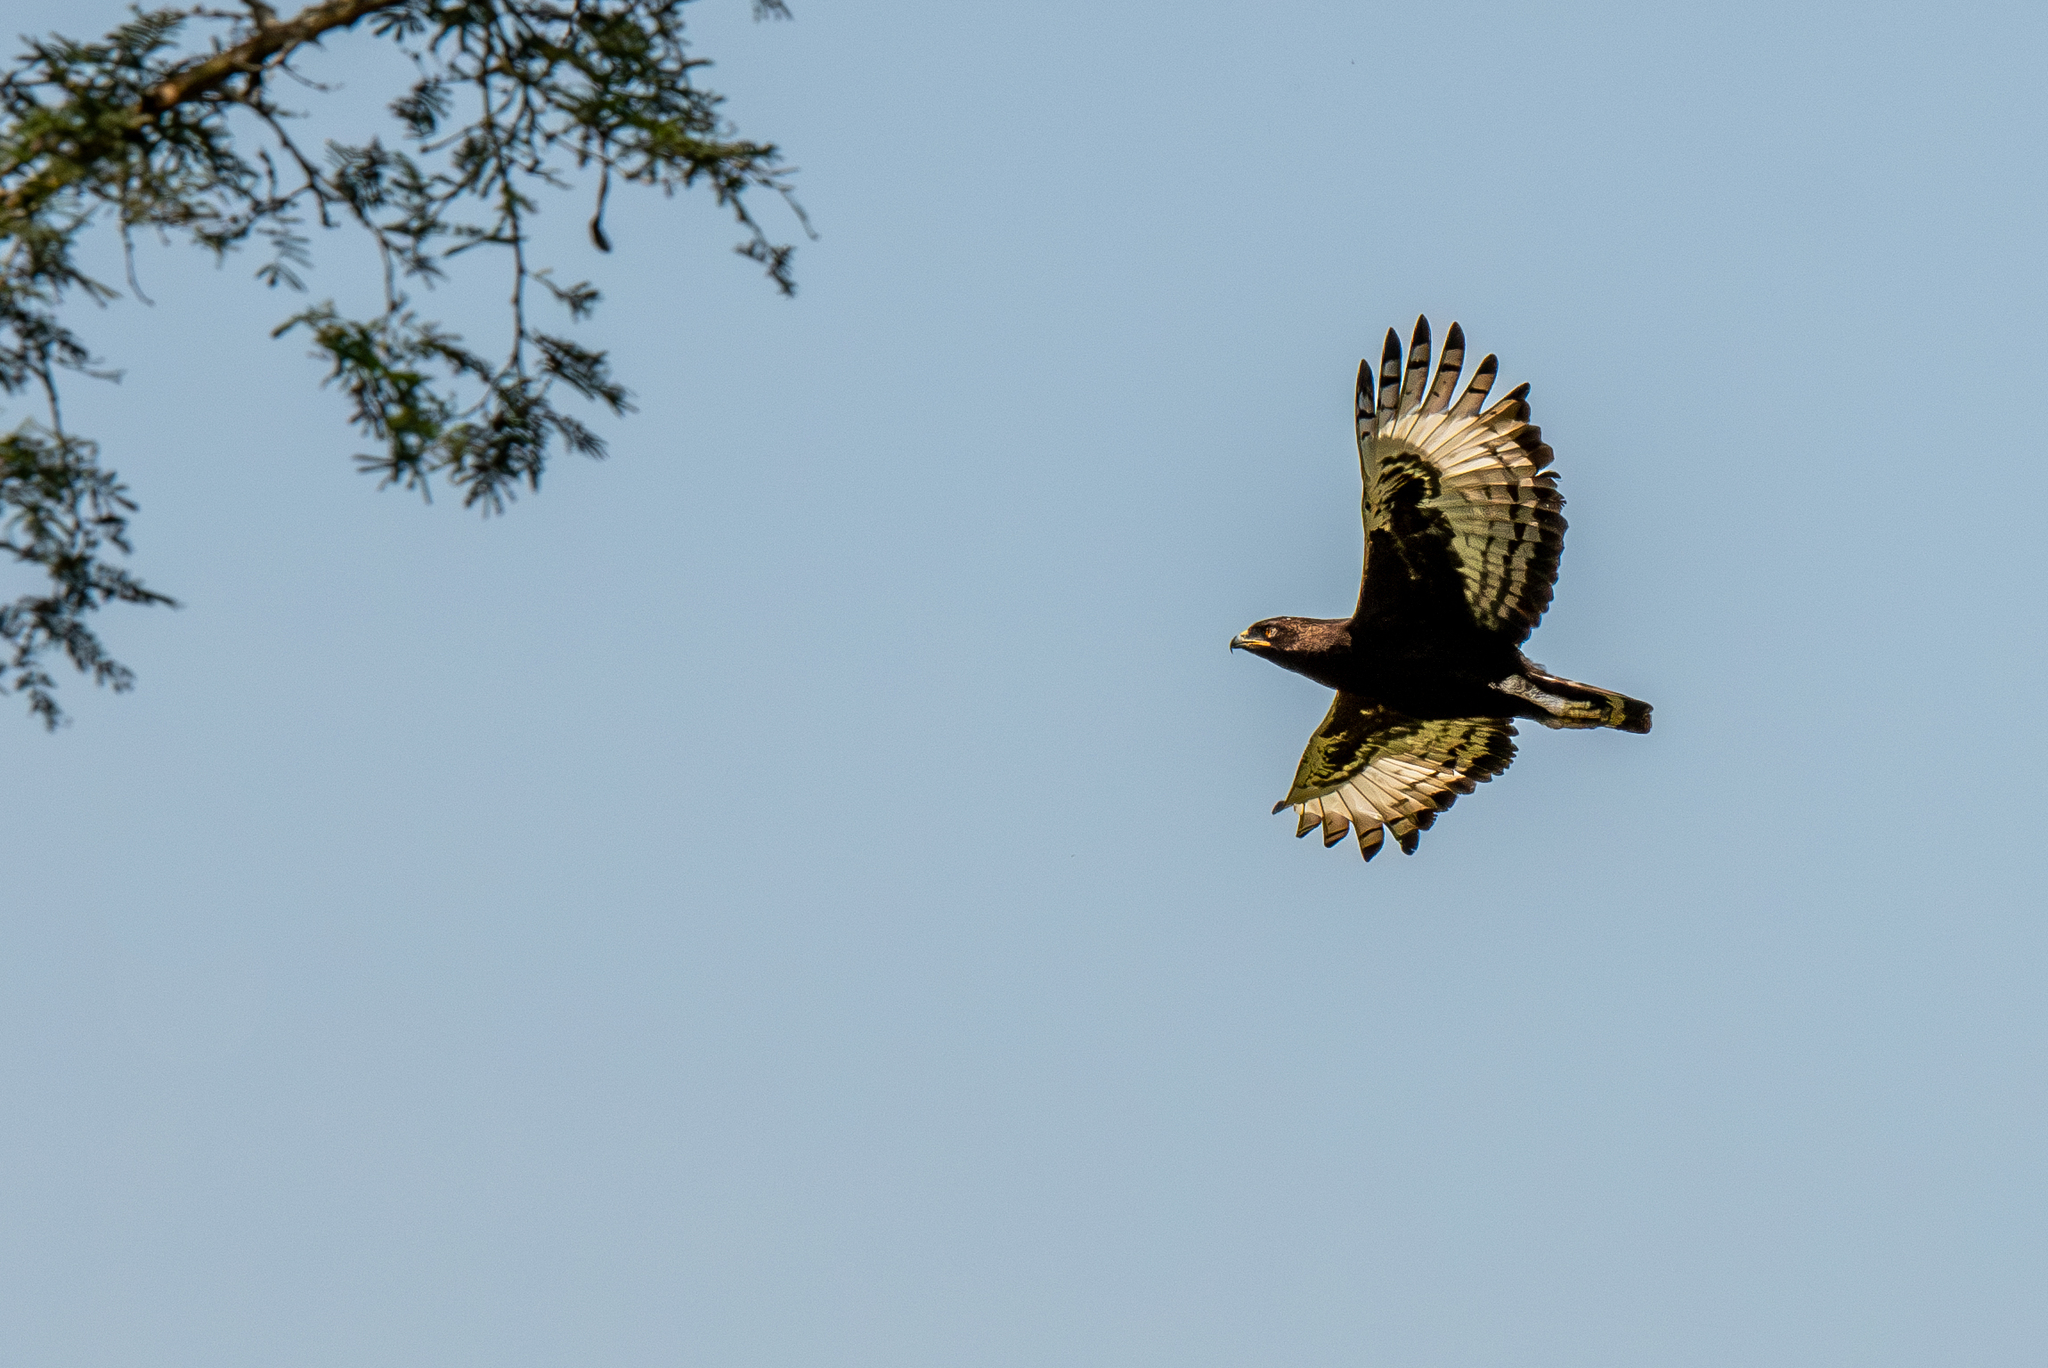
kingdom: Animalia
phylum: Chordata
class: Aves
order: Accipitriformes
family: Accipitridae
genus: Lophaetus
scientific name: Lophaetus occipitalis
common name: Long-crested eagle
